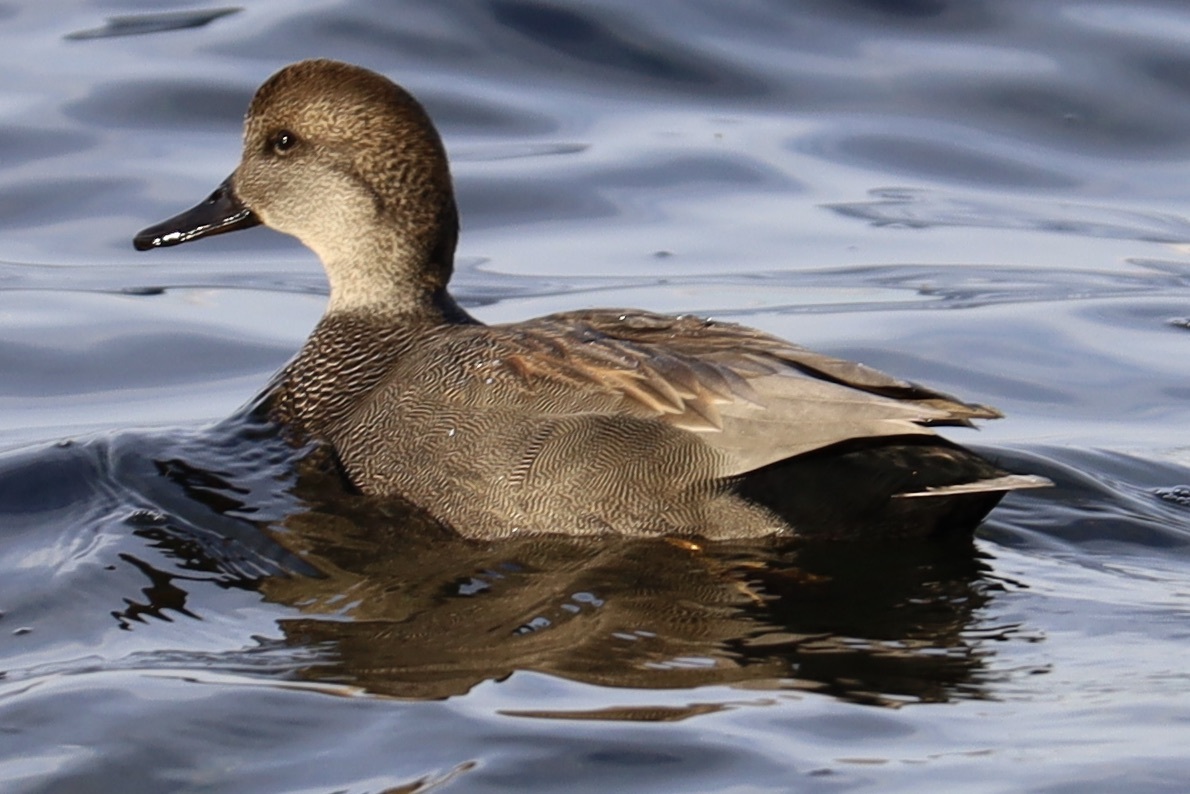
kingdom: Animalia
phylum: Chordata
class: Aves
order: Anseriformes
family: Anatidae
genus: Mareca
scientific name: Mareca strepera
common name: Gadwall
